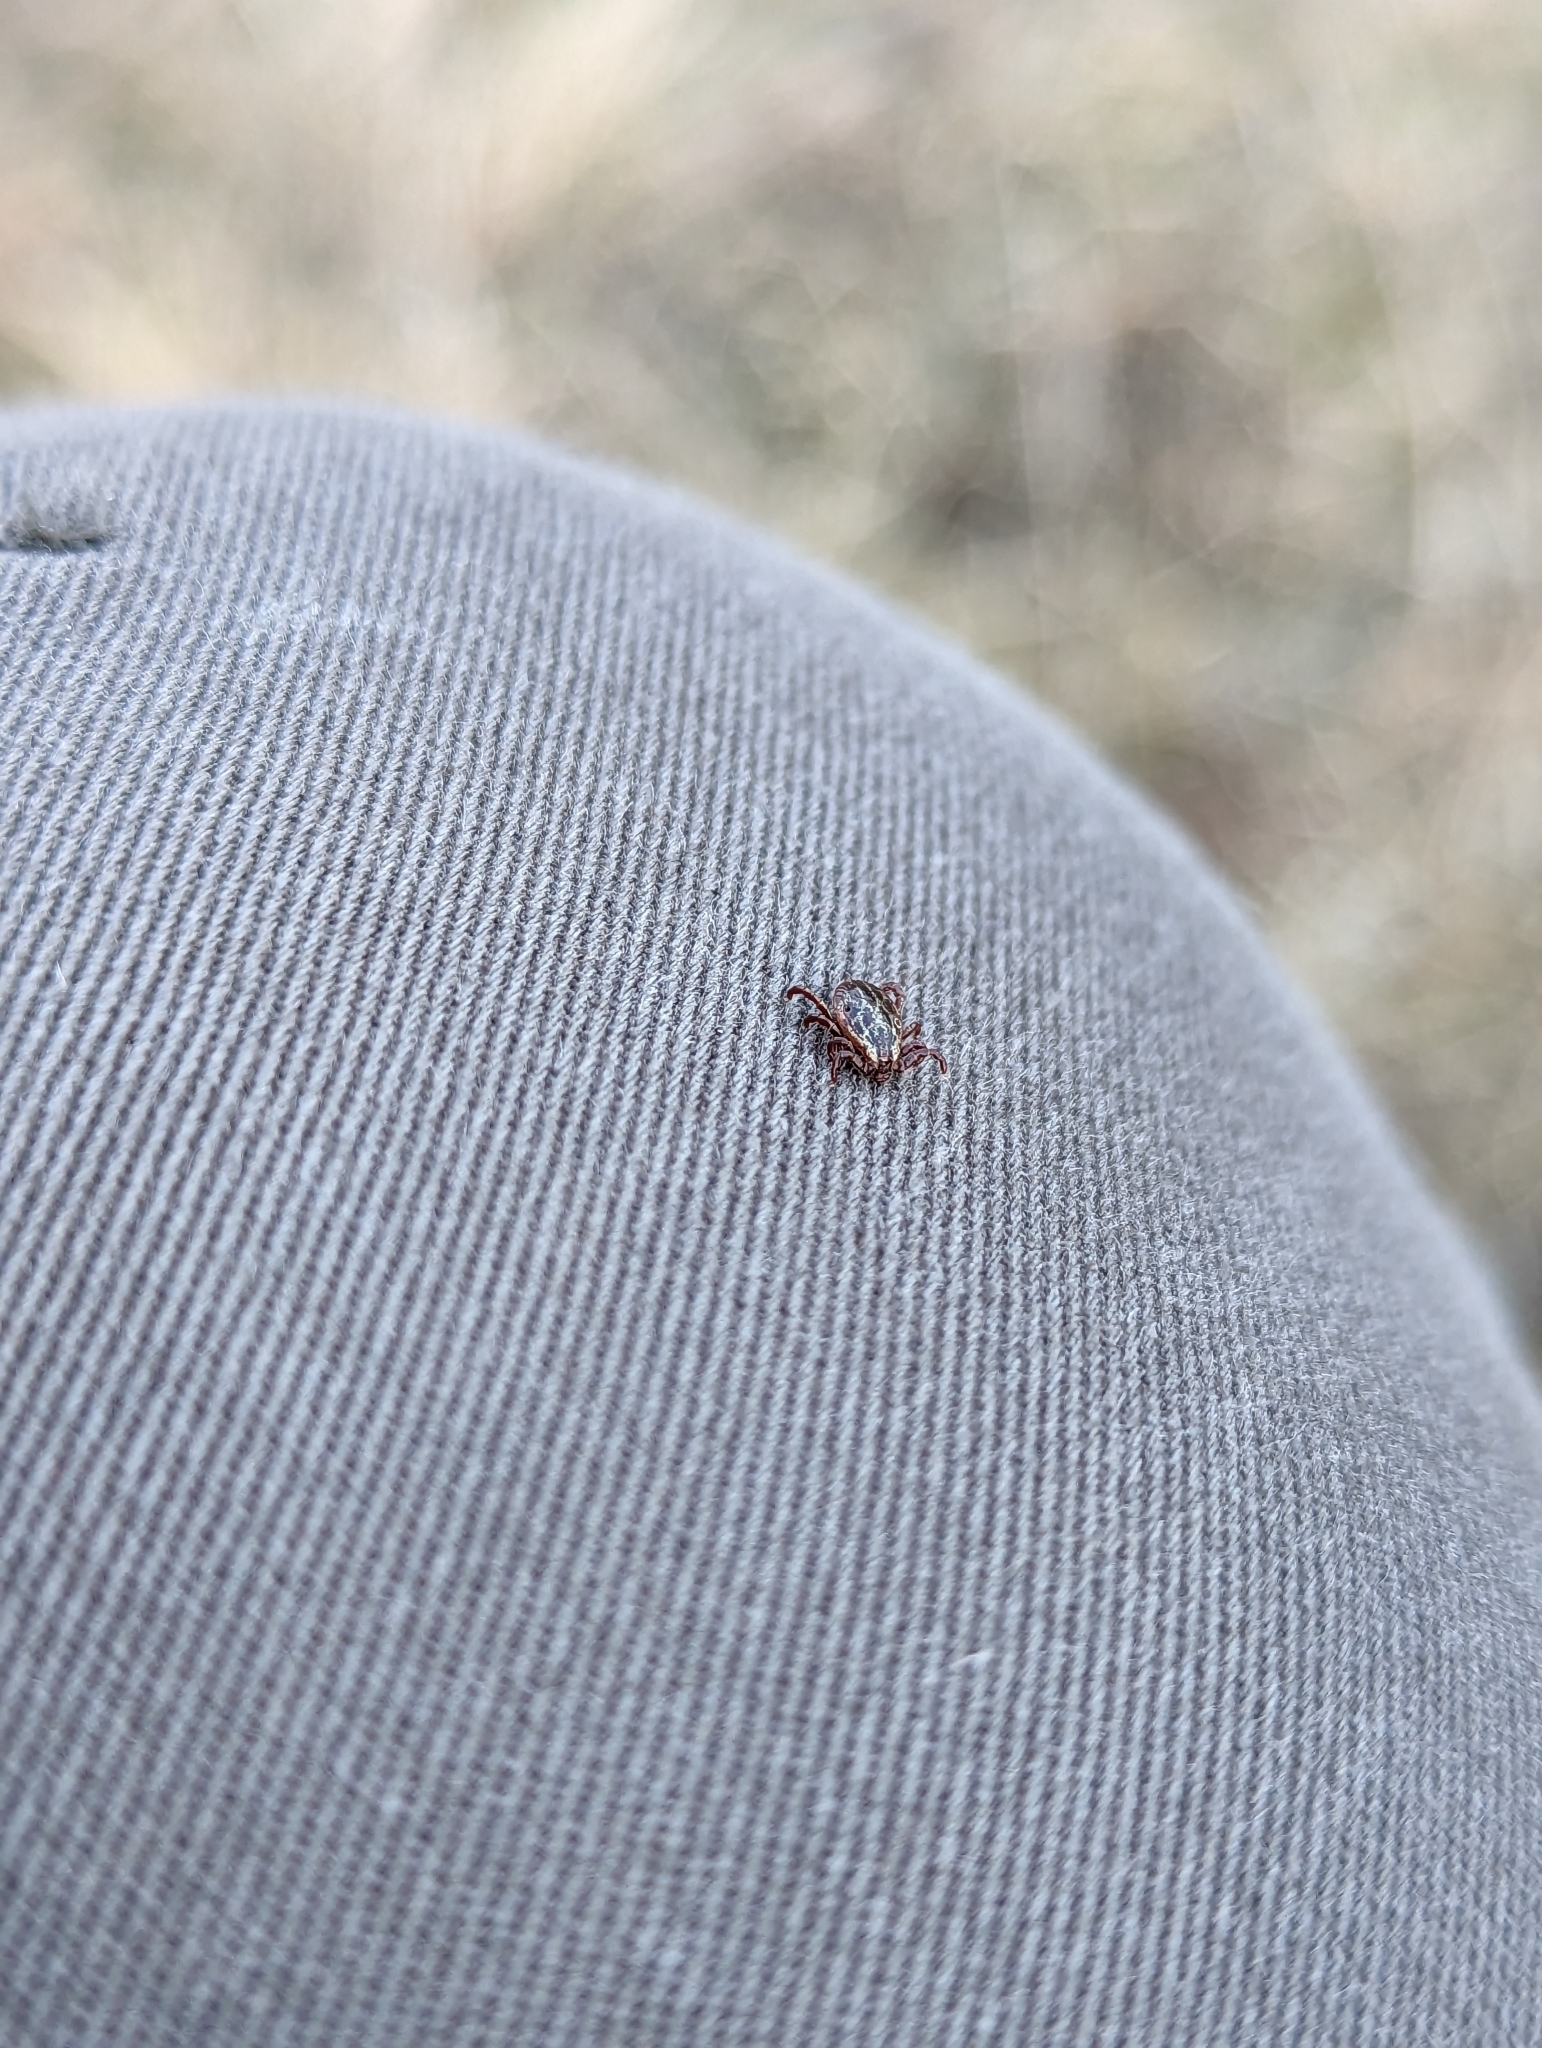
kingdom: Animalia
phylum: Arthropoda
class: Arachnida
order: Ixodida
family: Ixodidae
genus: Dermacentor
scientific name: Dermacentor reticulatus
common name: Ornate cow tick
